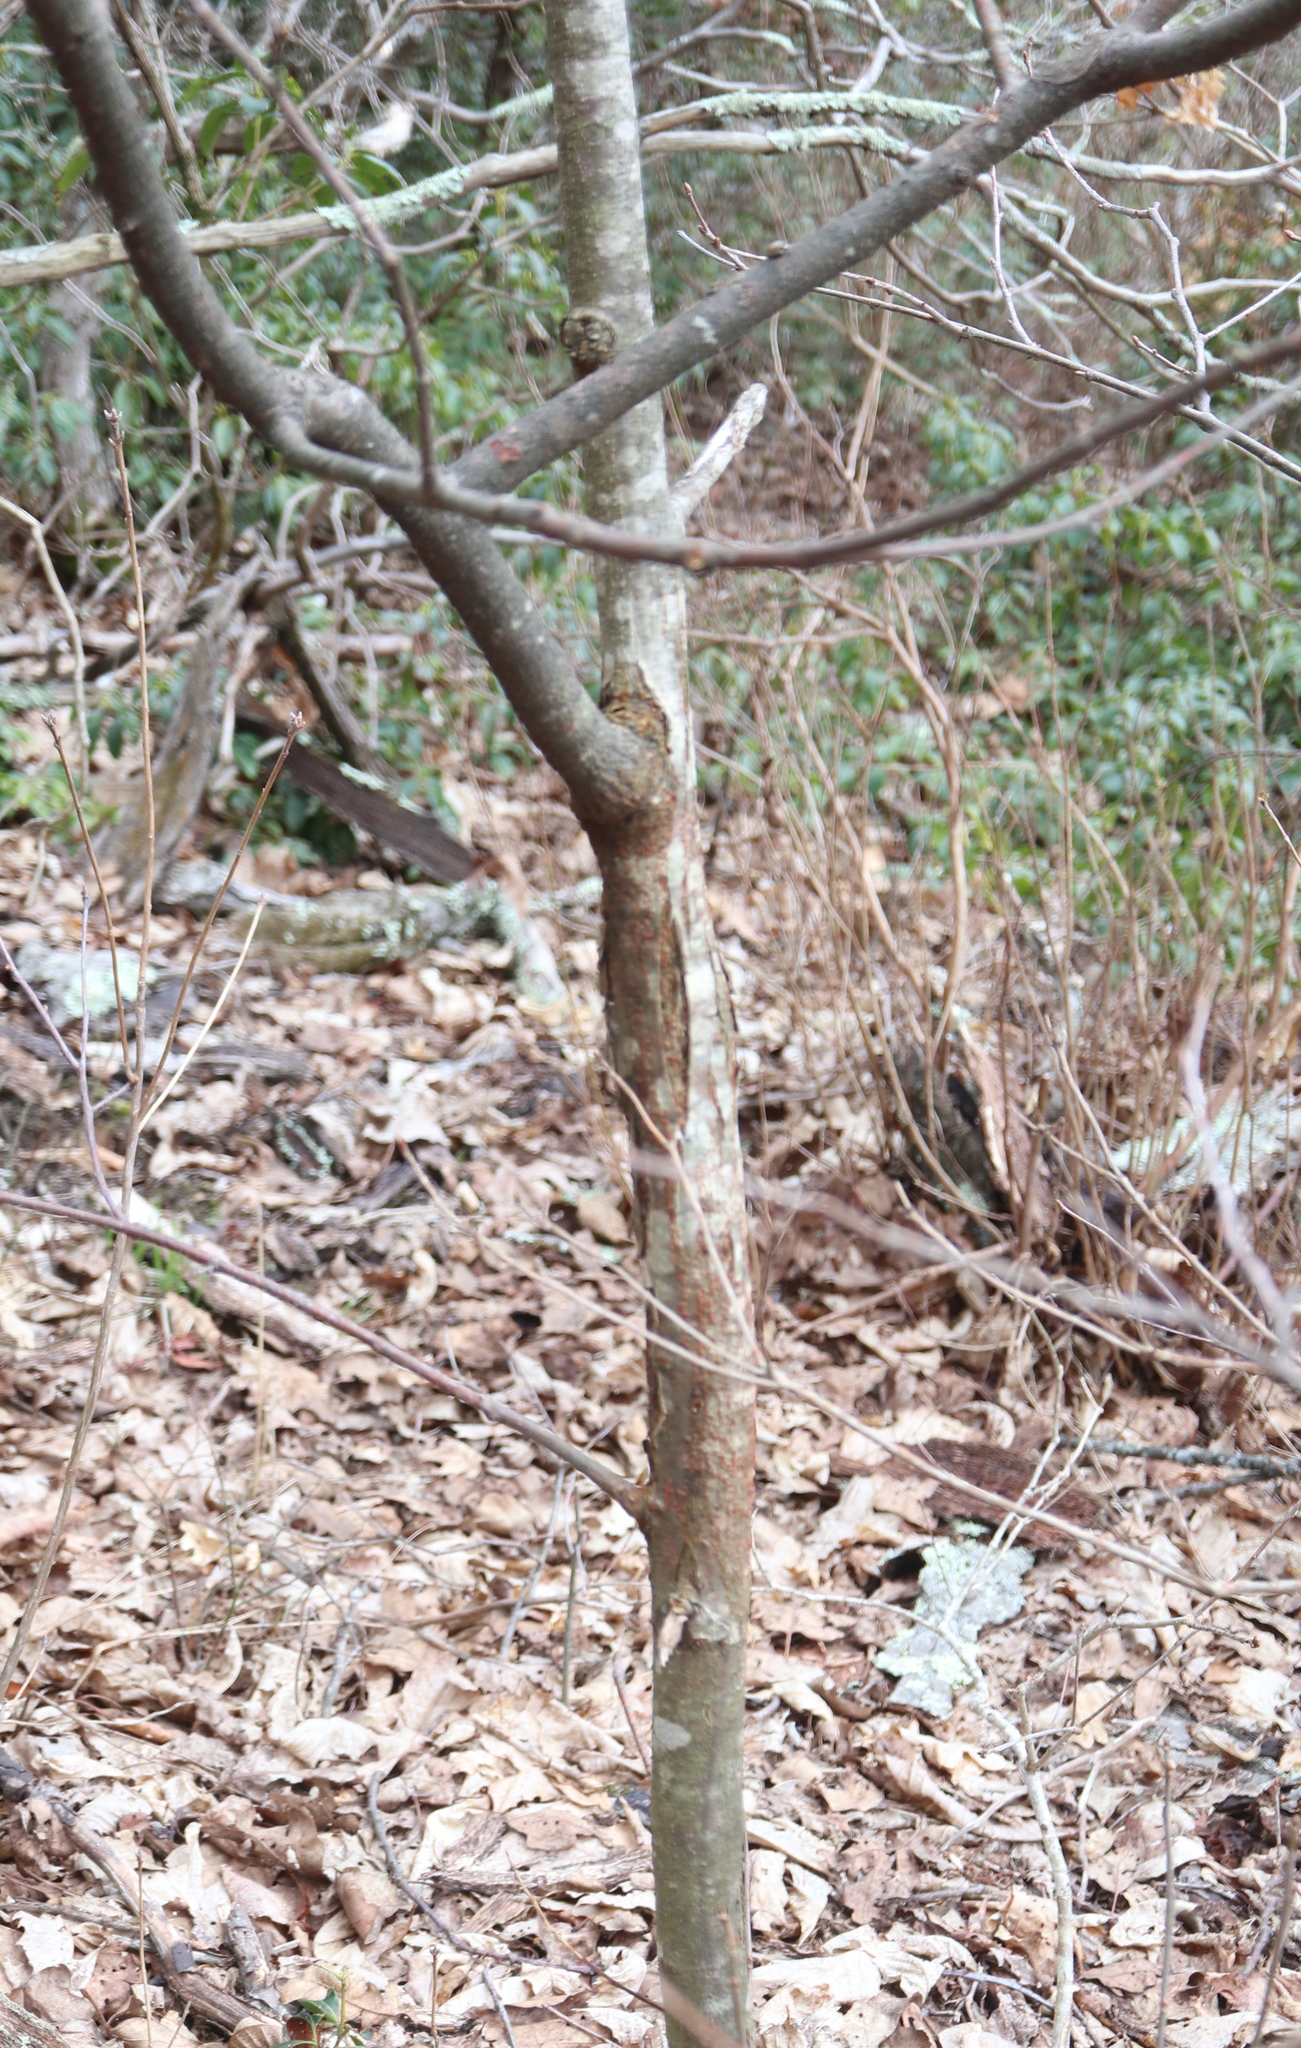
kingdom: Fungi
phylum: Ascomycota
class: Sordariomycetes
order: Diaporthales
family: Cryphonectriaceae
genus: Cryphonectria
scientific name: Cryphonectria parasitica
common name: Chestnut blight
